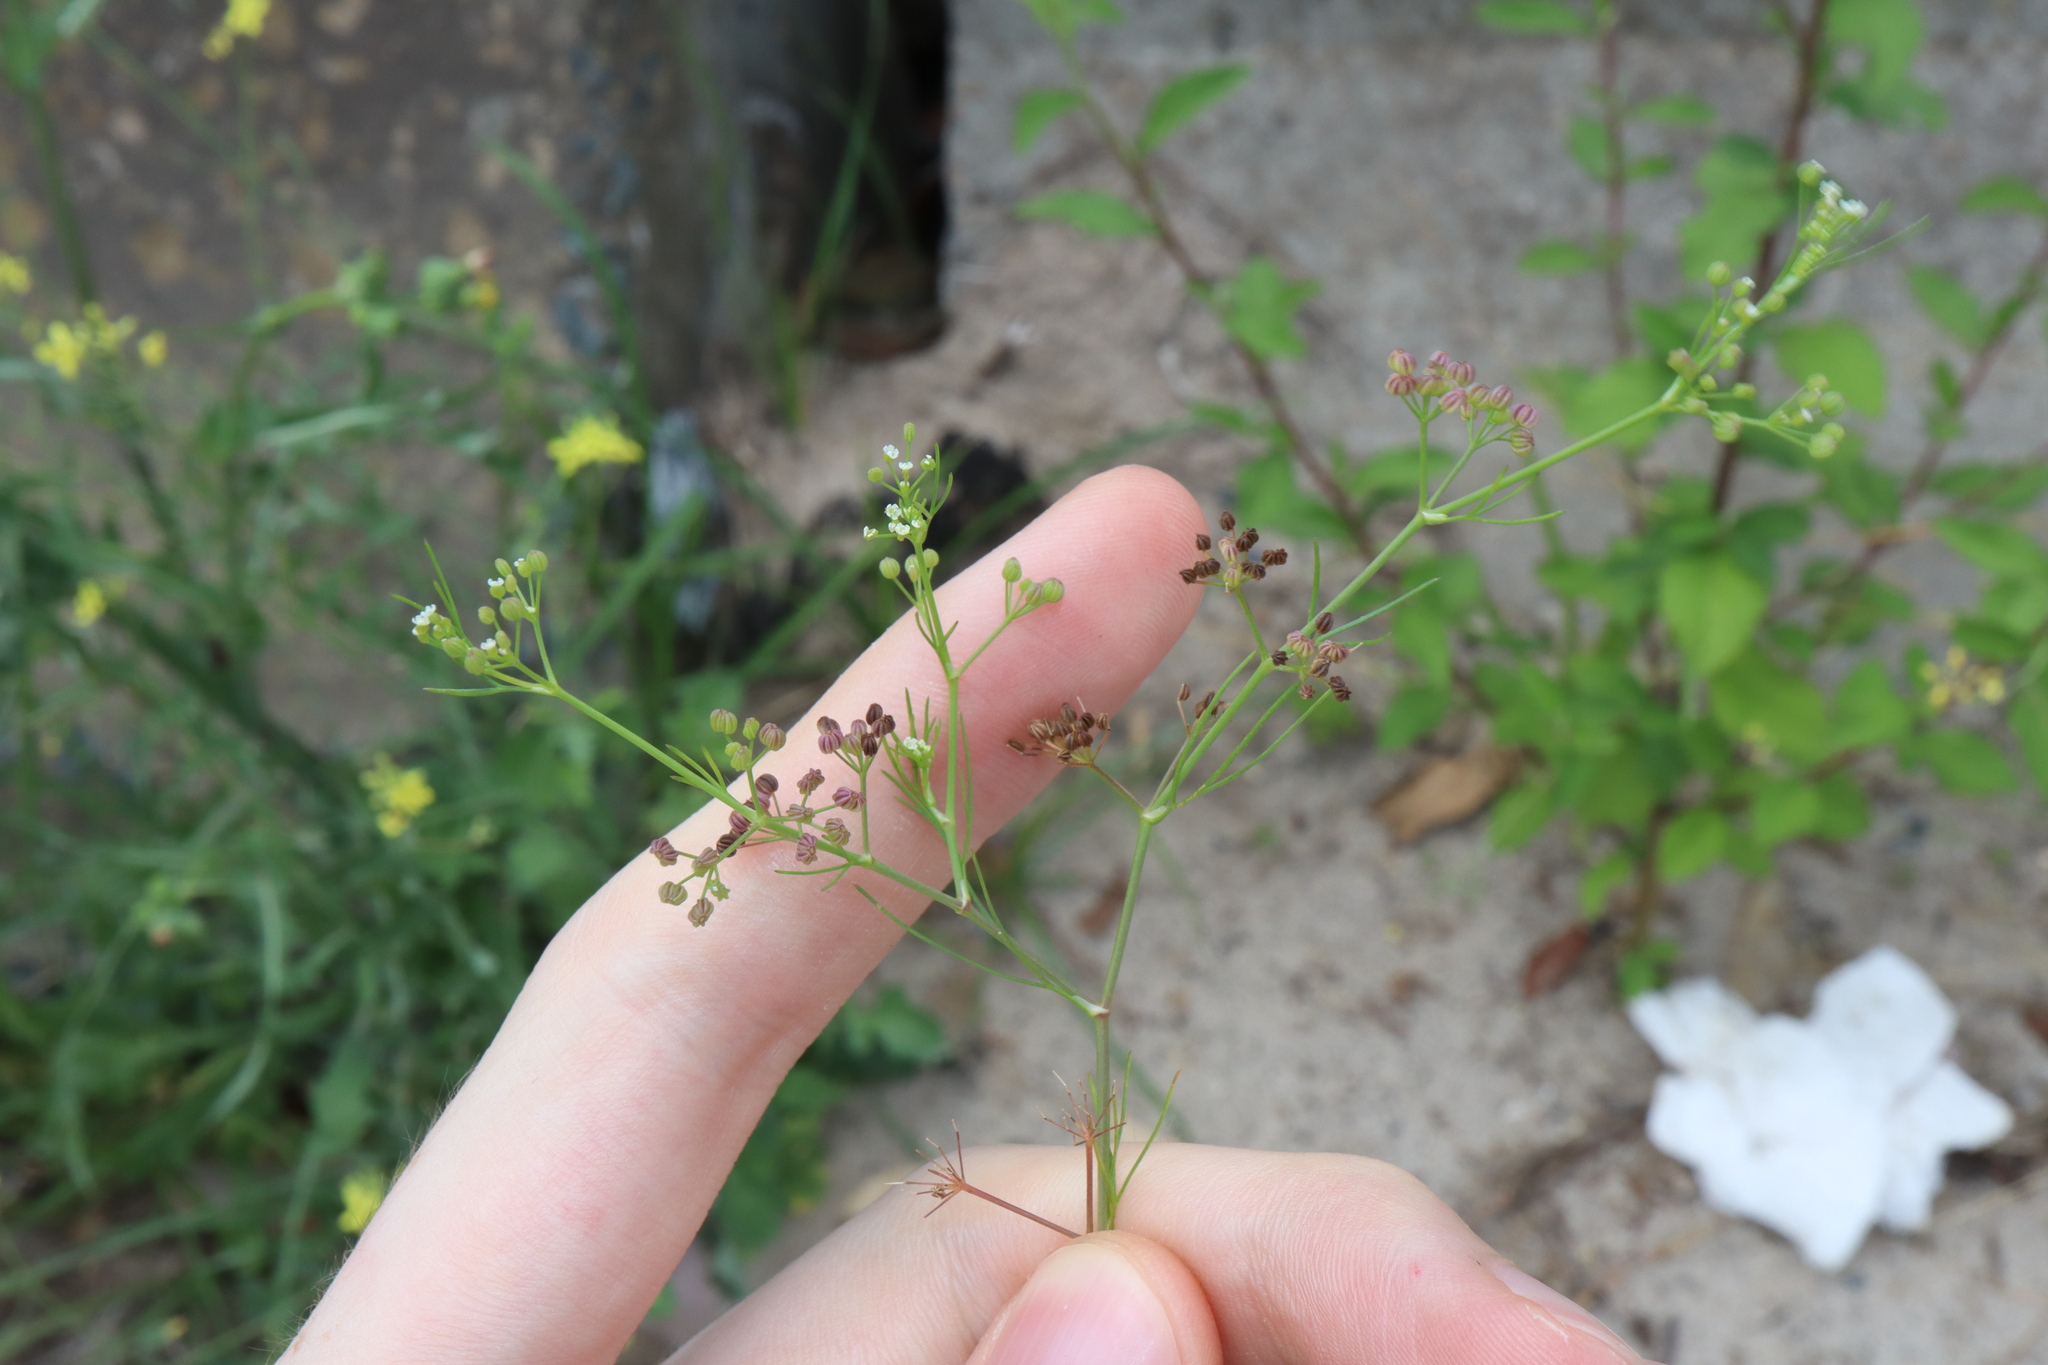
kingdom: Plantae
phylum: Tracheophyta
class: Magnoliopsida
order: Apiales
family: Apiaceae
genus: Cyclospermum
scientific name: Cyclospermum leptophyllum
